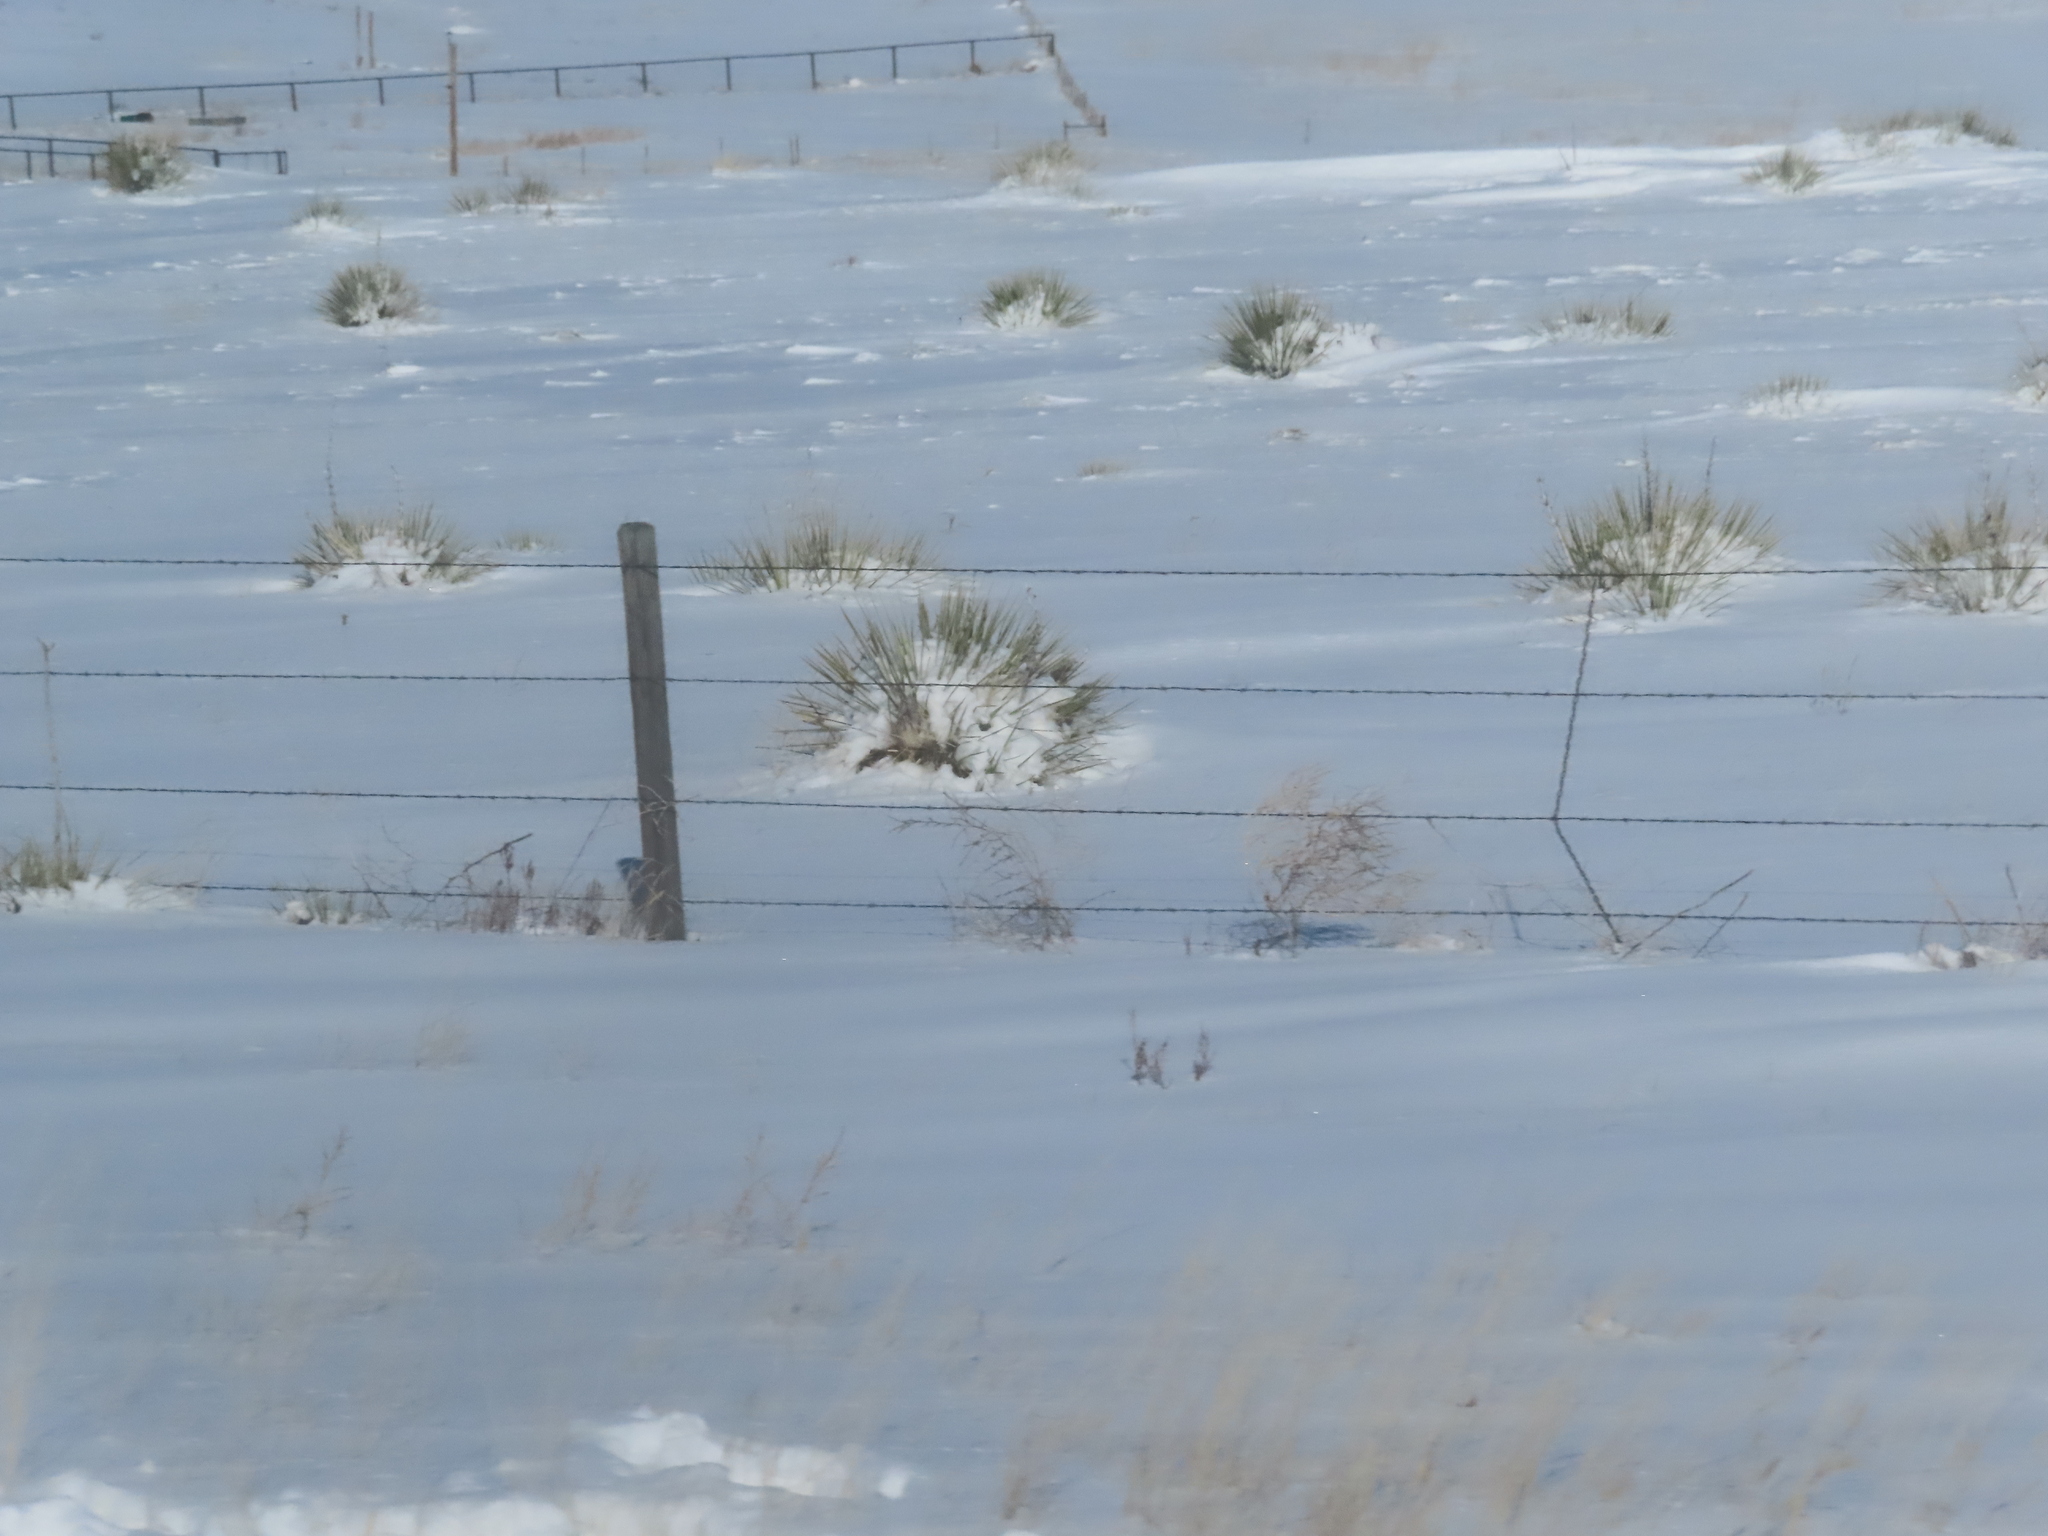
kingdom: Plantae
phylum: Tracheophyta
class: Liliopsida
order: Asparagales
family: Asparagaceae
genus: Yucca
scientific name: Yucca glauca
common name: Great plains yucca
